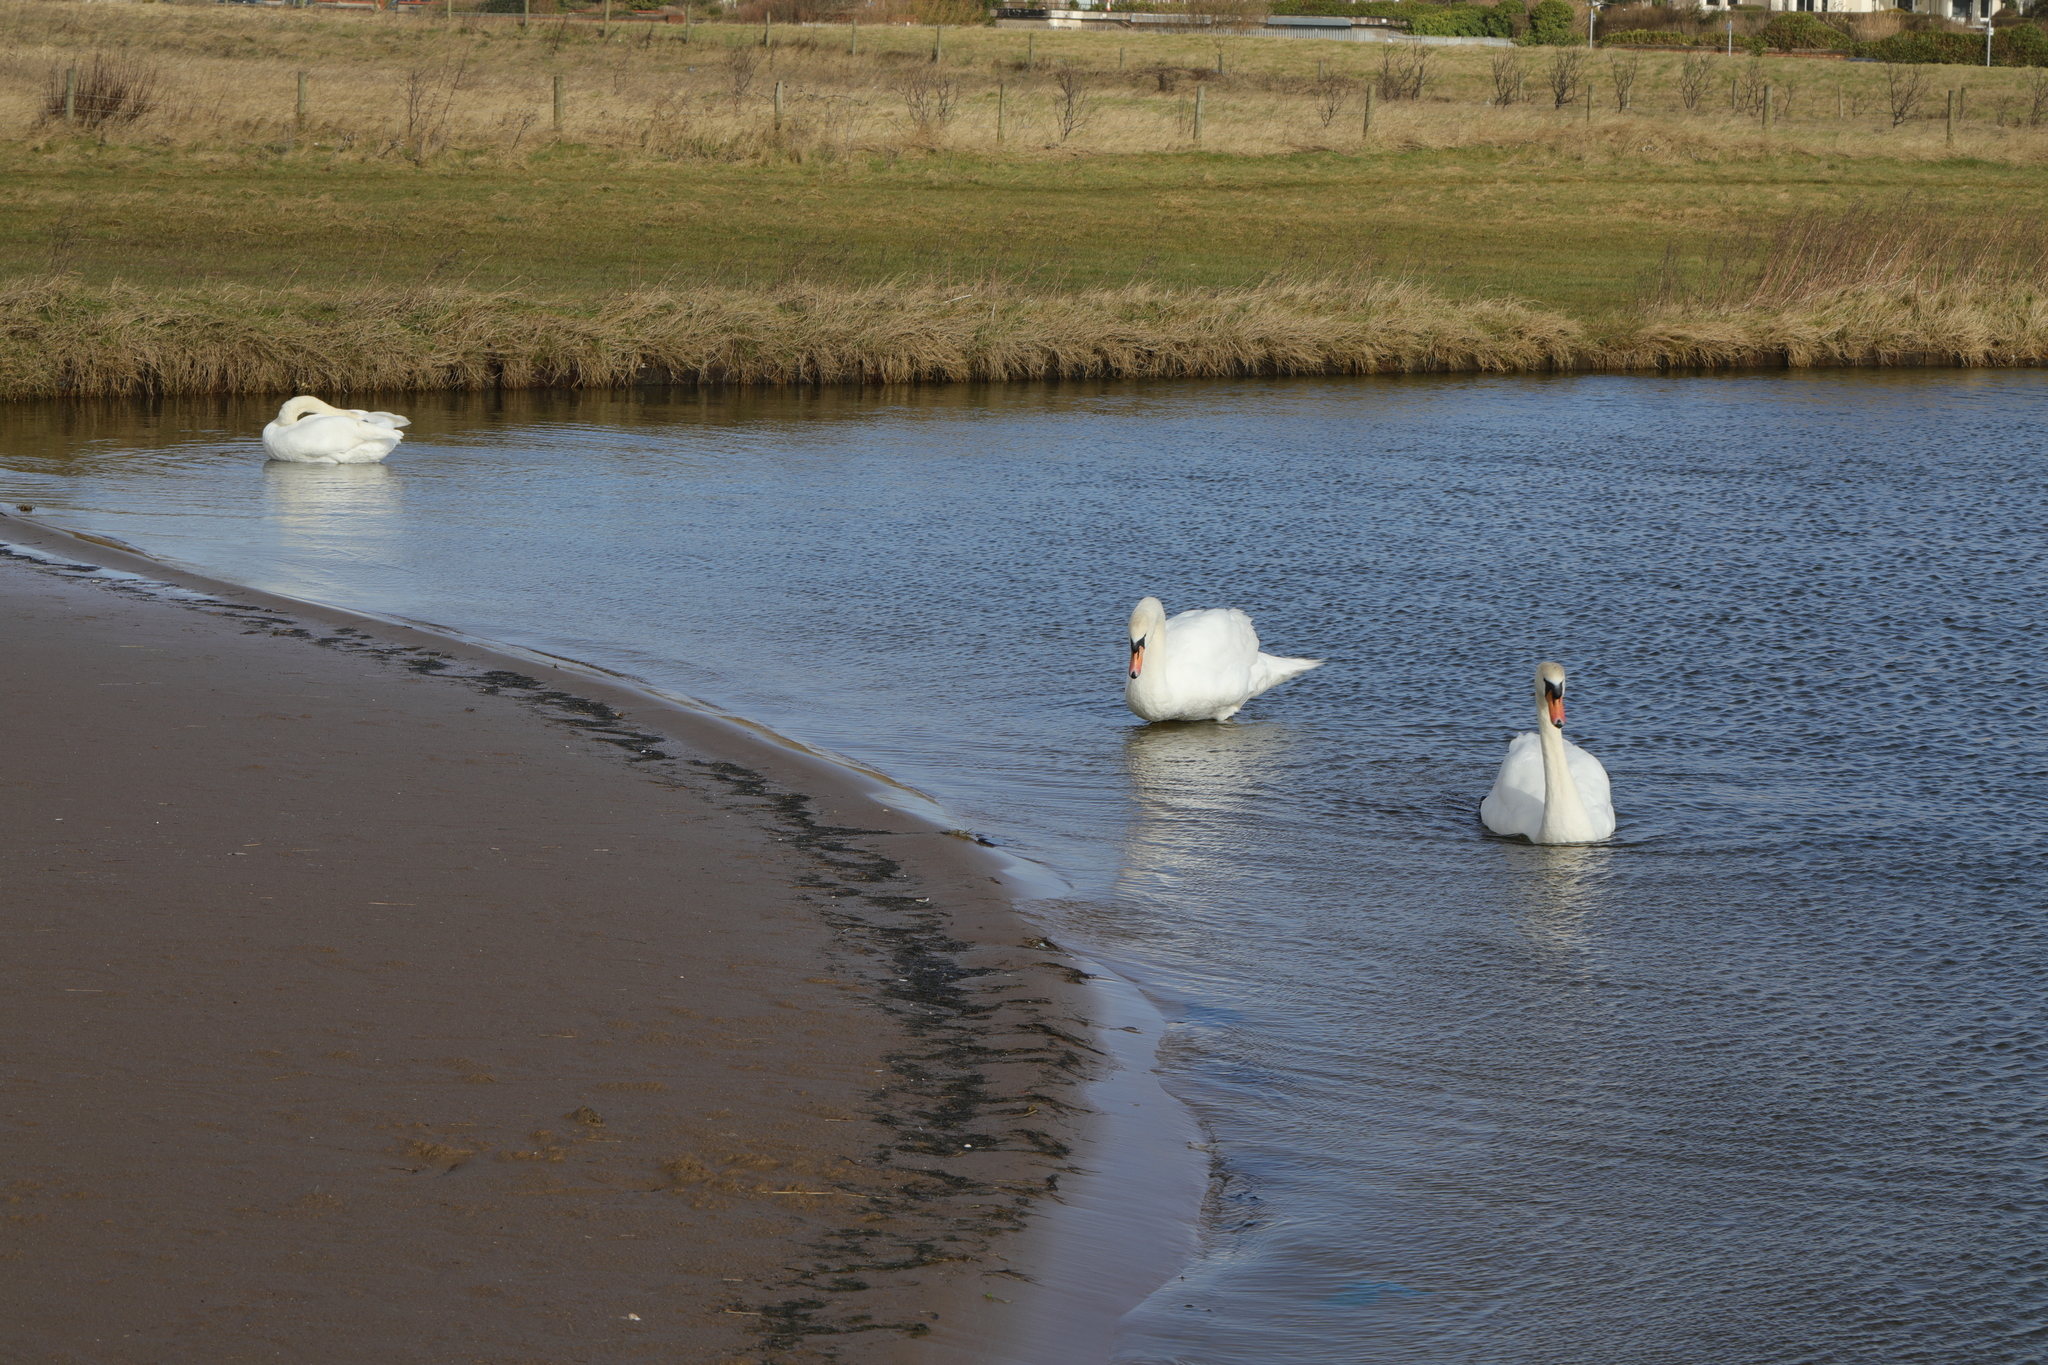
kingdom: Animalia
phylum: Chordata
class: Aves
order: Anseriformes
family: Anatidae
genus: Cygnus
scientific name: Cygnus olor
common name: Mute swan
